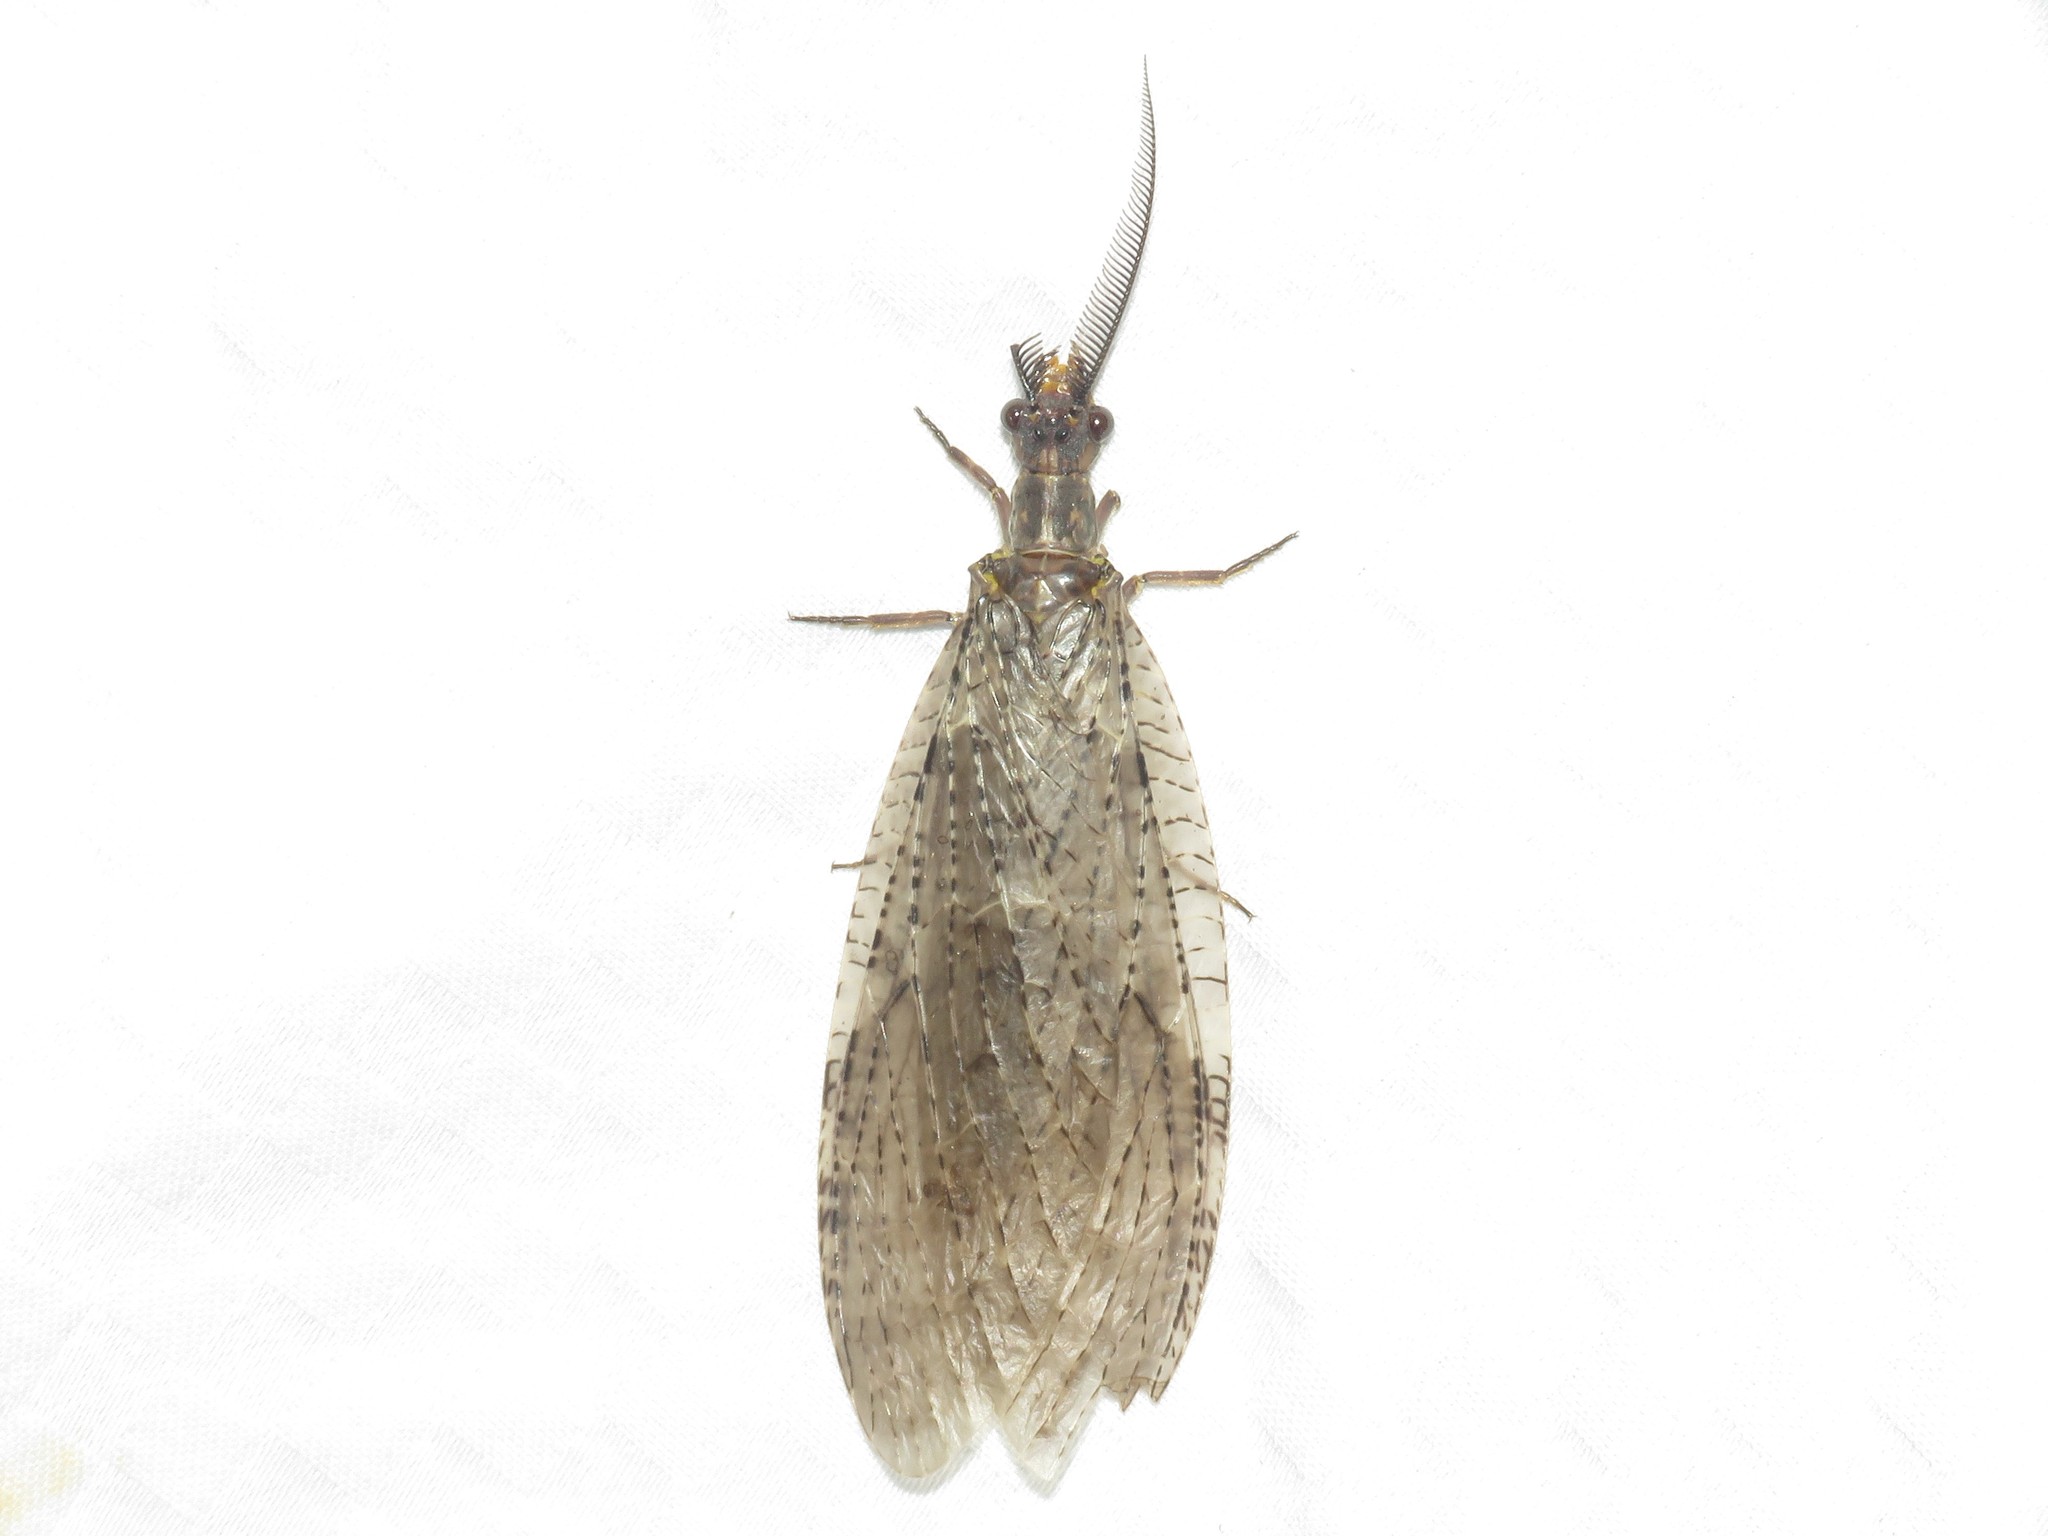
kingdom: Animalia
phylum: Arthropoda
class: Insecta
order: Megaloptera
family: Corydalidae
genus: Chauliodes
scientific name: Chauliodes pectinicornis
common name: Summer fishfly
